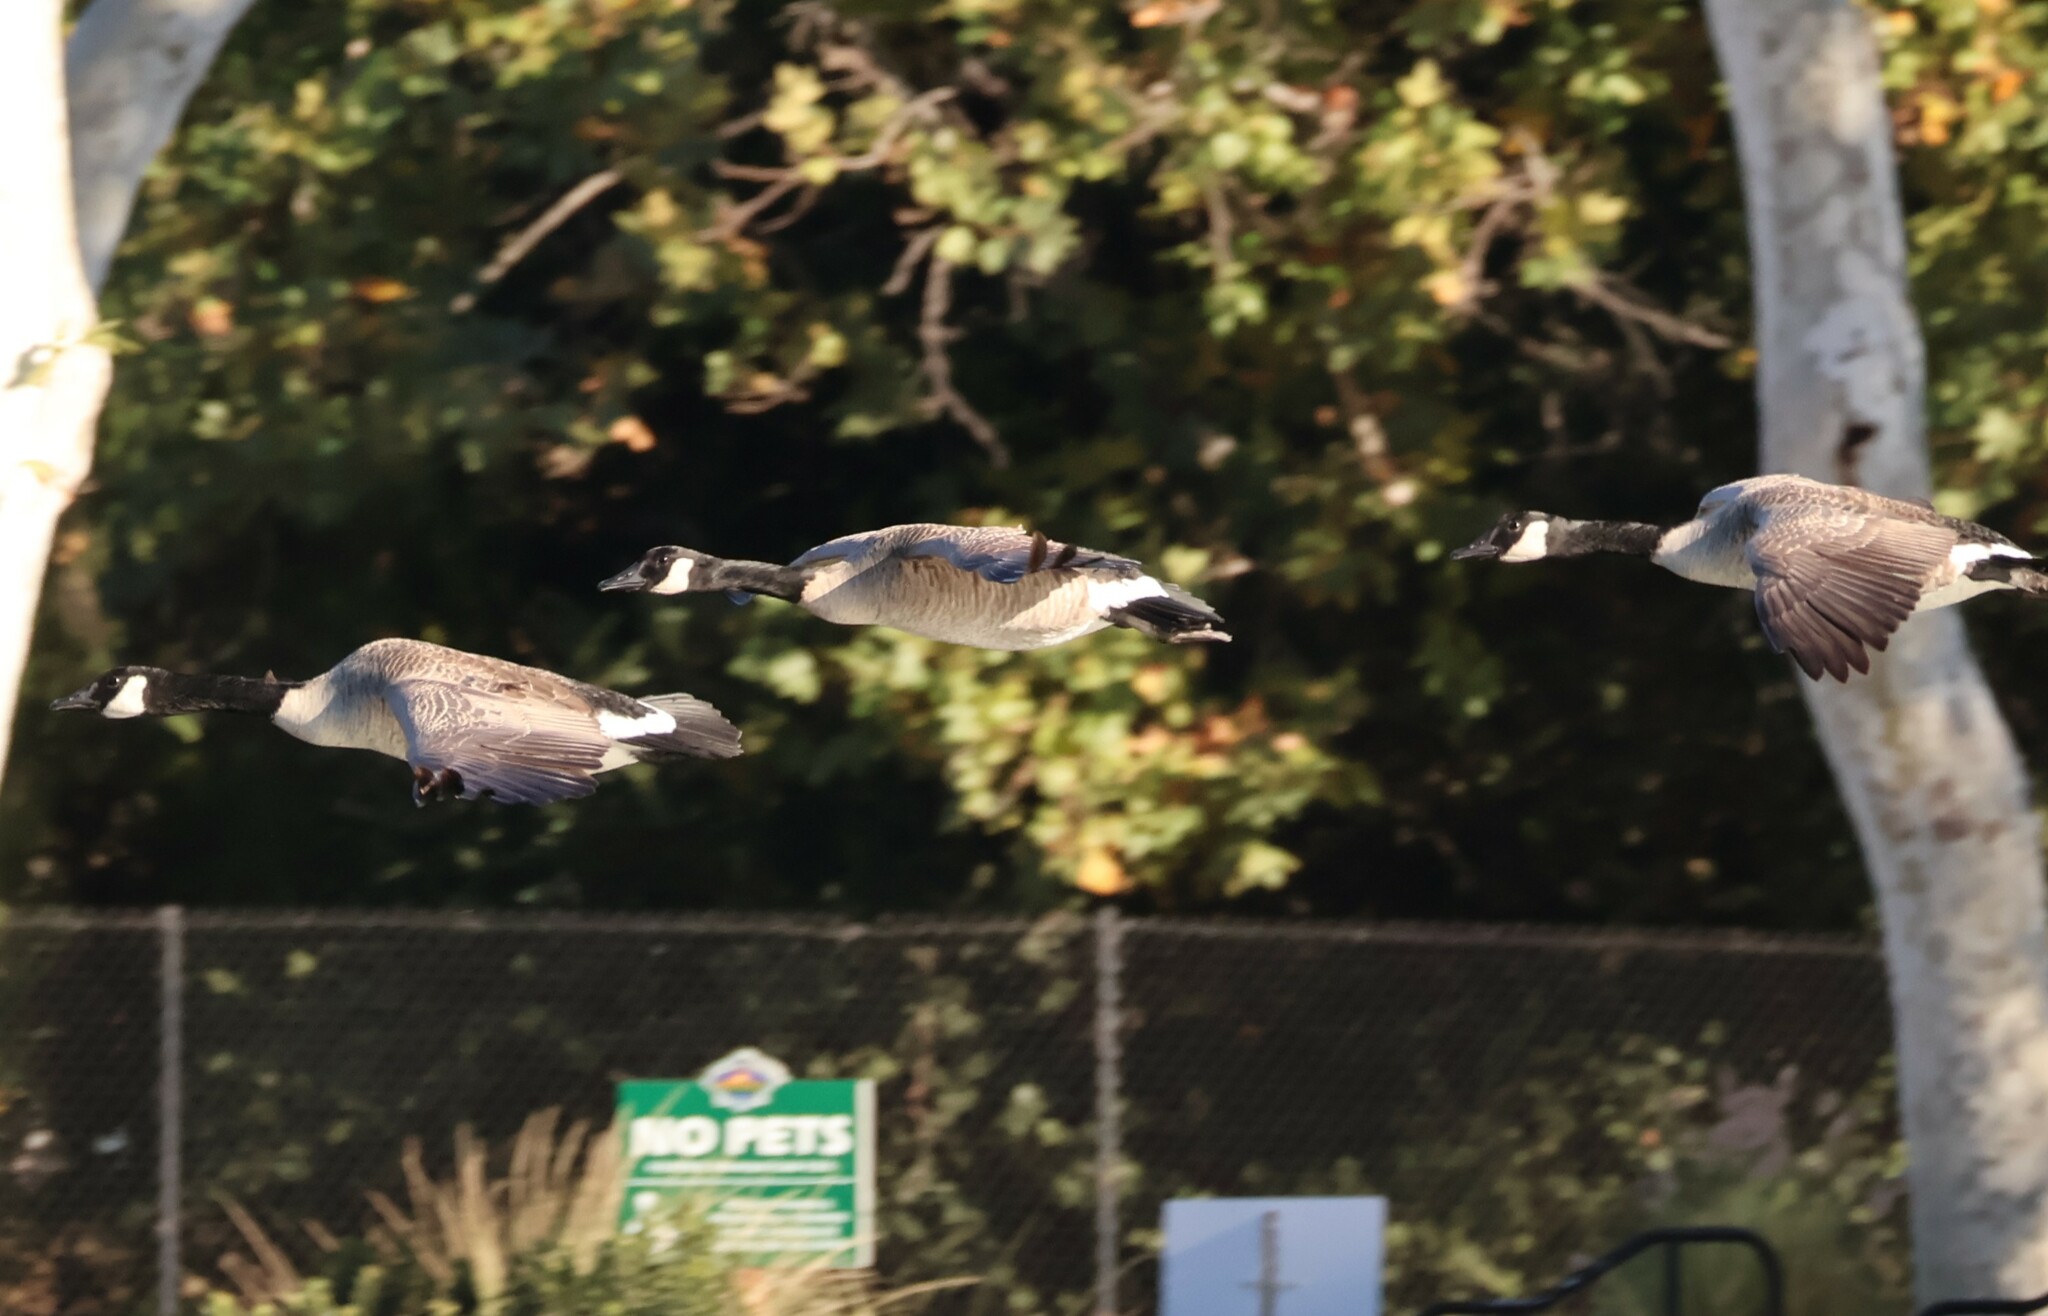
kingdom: Animalia
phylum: Chordata
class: Aves
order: Anseriformes
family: Anatidae
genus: Branta
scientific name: Branta canadensis
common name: Canada goose
